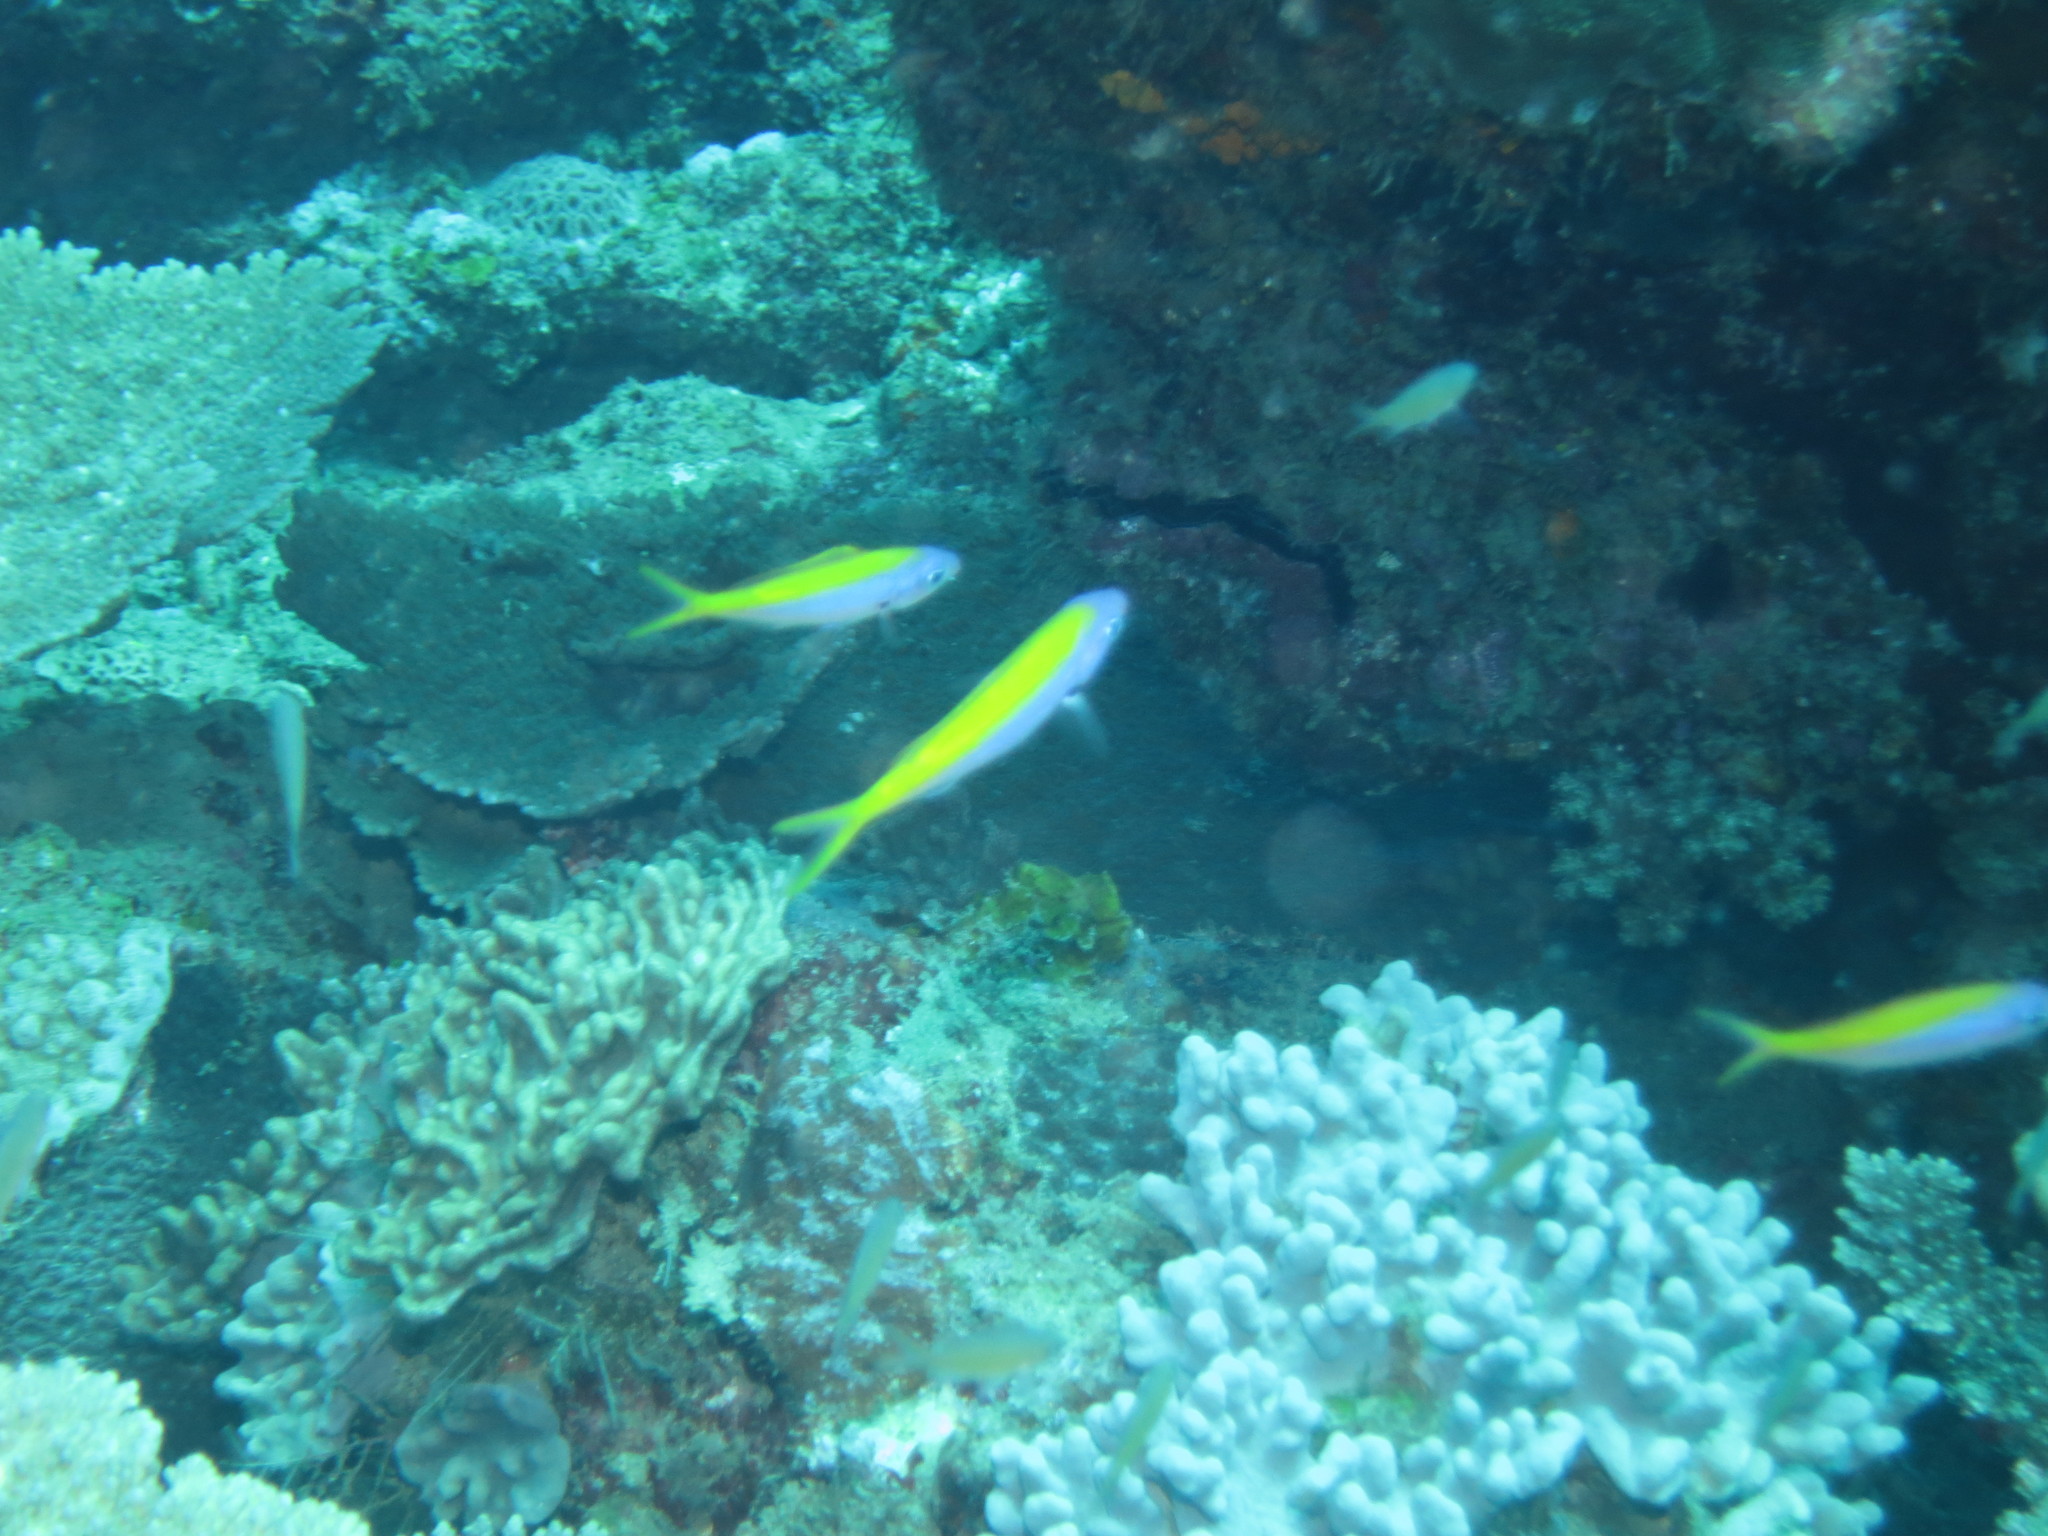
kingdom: Animalia
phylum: Chordata
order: Perciformes
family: Caesionidae
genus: Caesio
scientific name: Caesio xanthonota
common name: Yellowback fusilier
